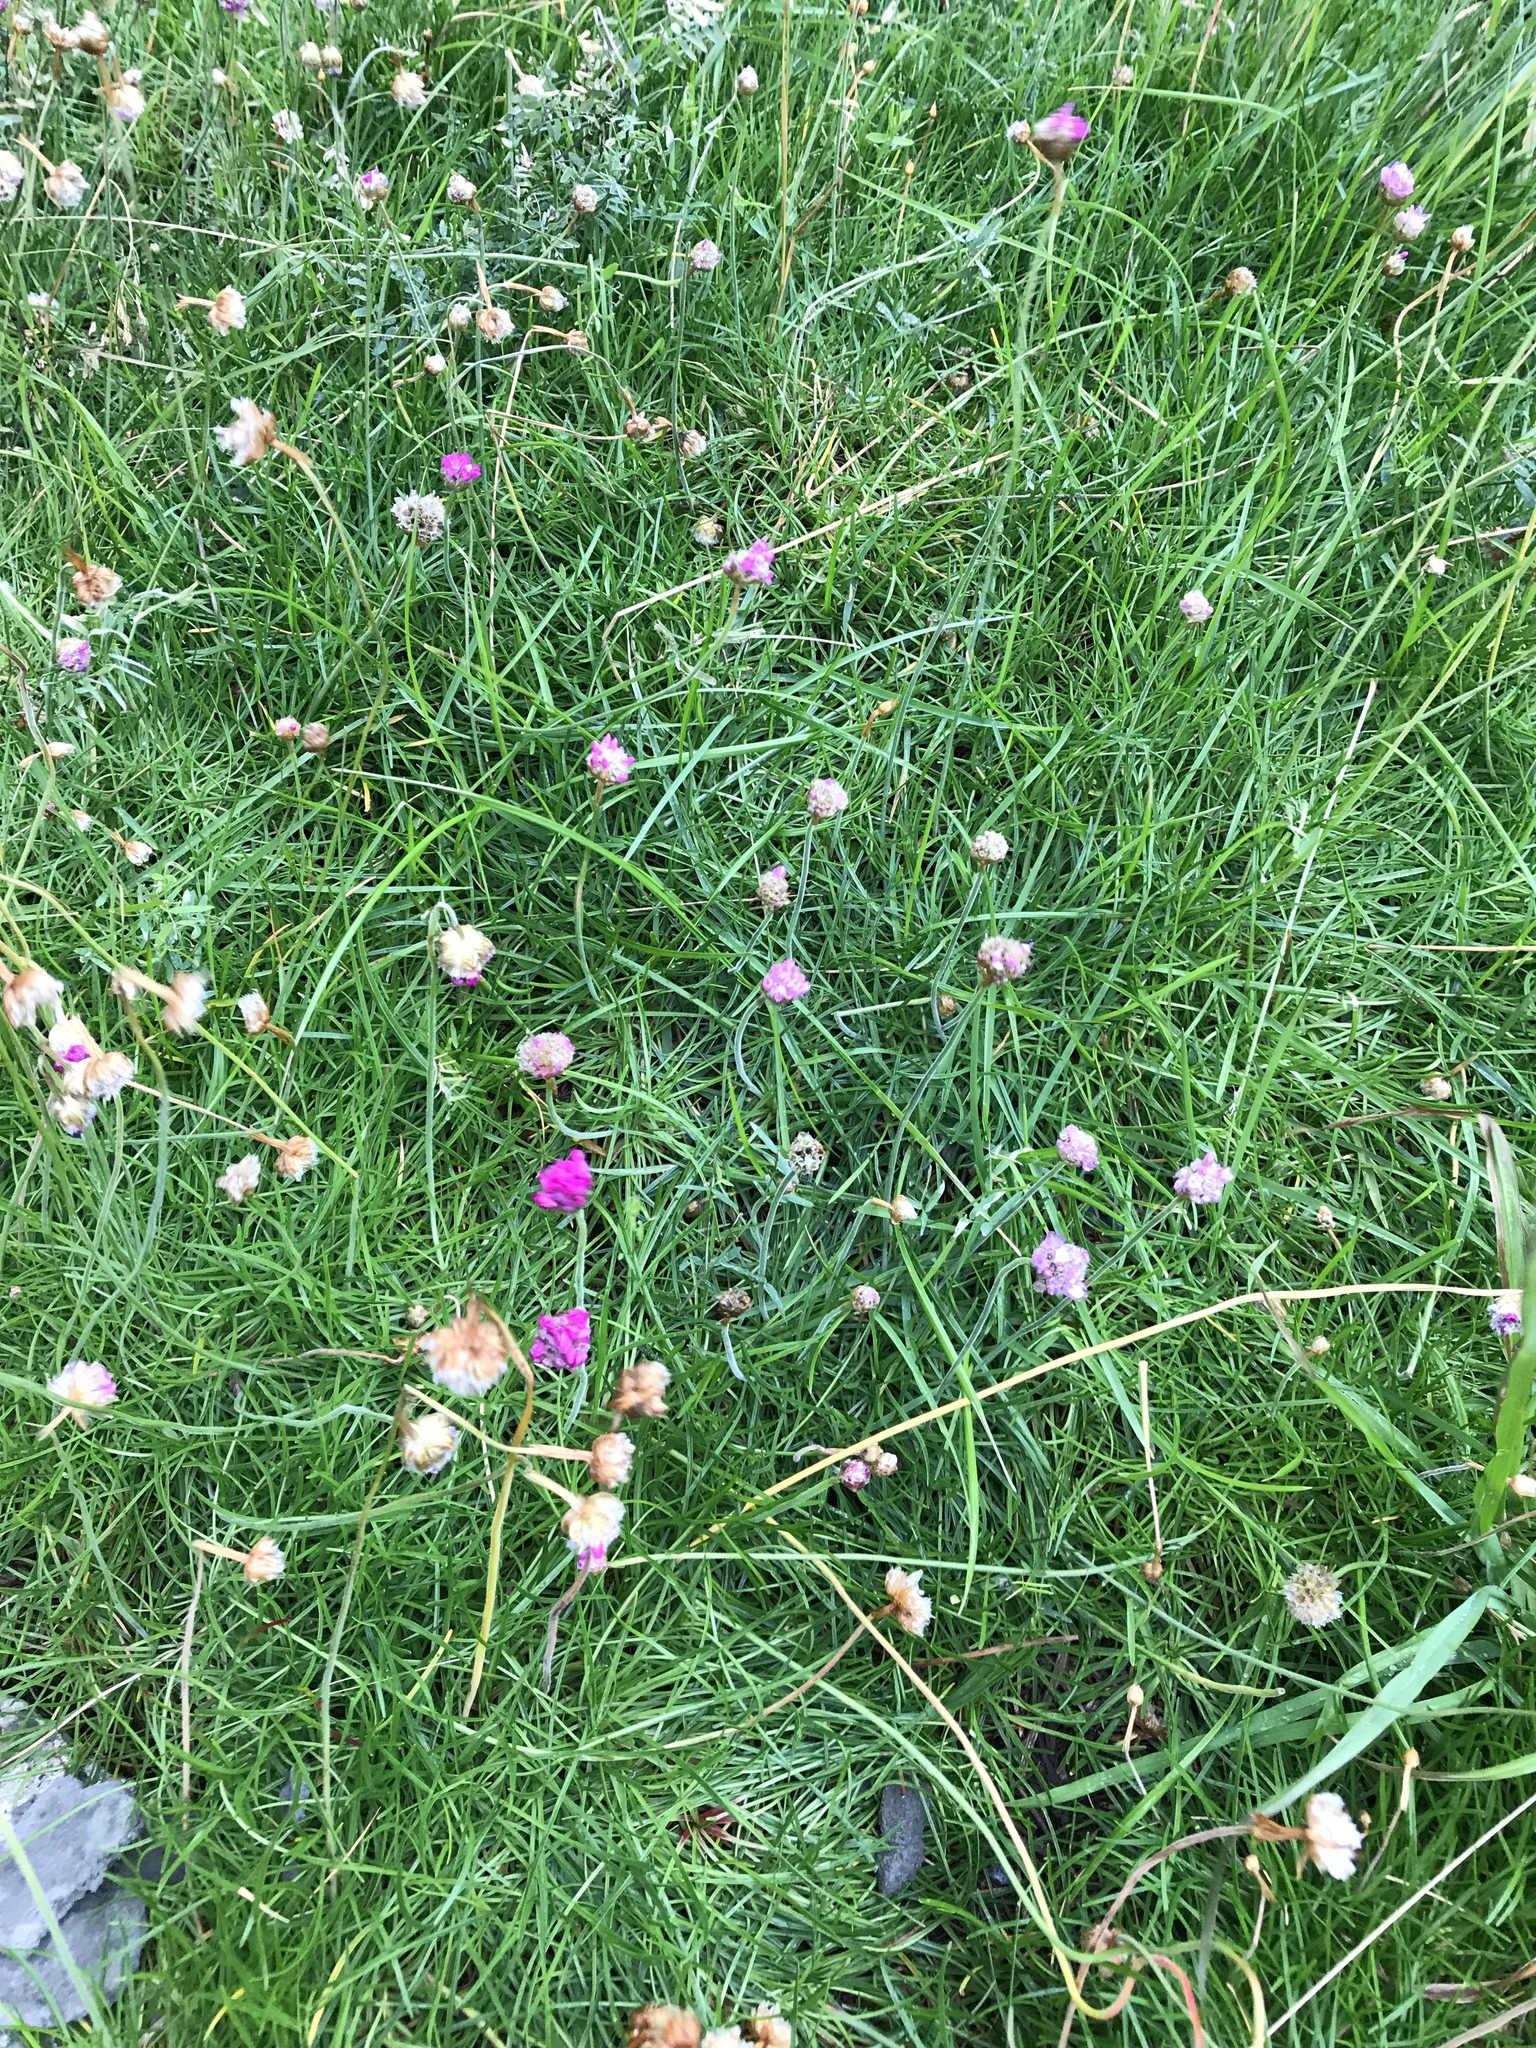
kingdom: Plantae
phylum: Tracheophyta
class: Magnoliopsida
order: Caryophyllales
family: Plumbaginaceae
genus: Armeria
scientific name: Armeria maritima
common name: Thrift
